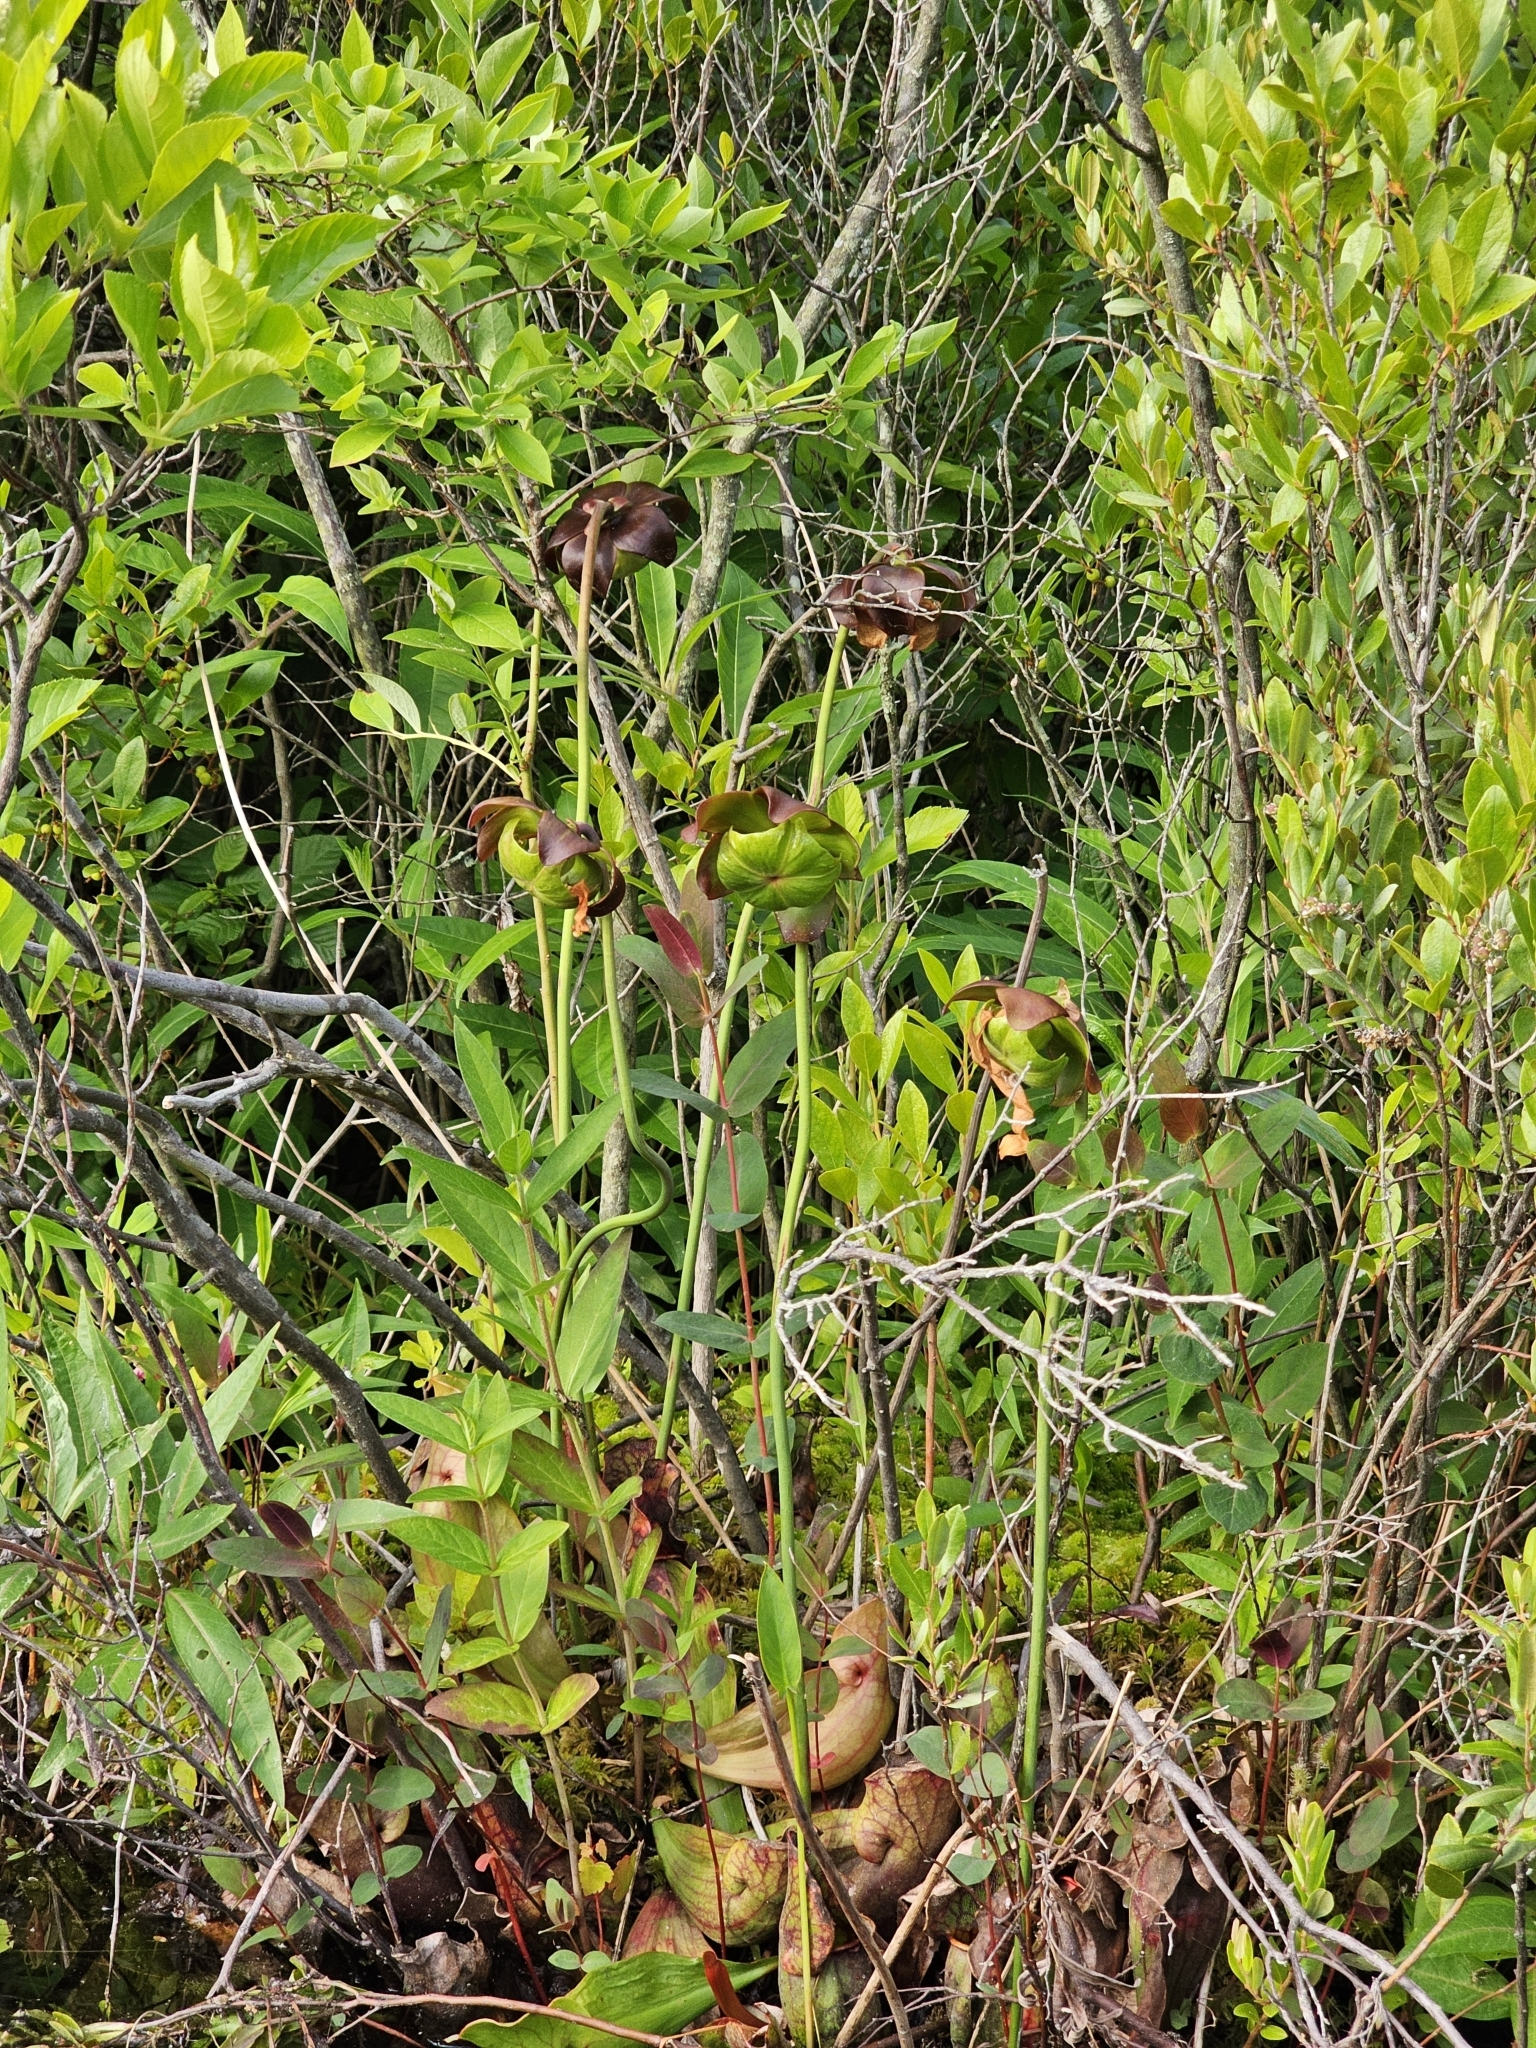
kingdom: Plantae
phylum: Tracheophyta
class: Magnoliopsida
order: Ericales
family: Sarraceniaceae
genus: Sarracenia
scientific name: Sarracenia purpurea
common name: Pitcherplant
